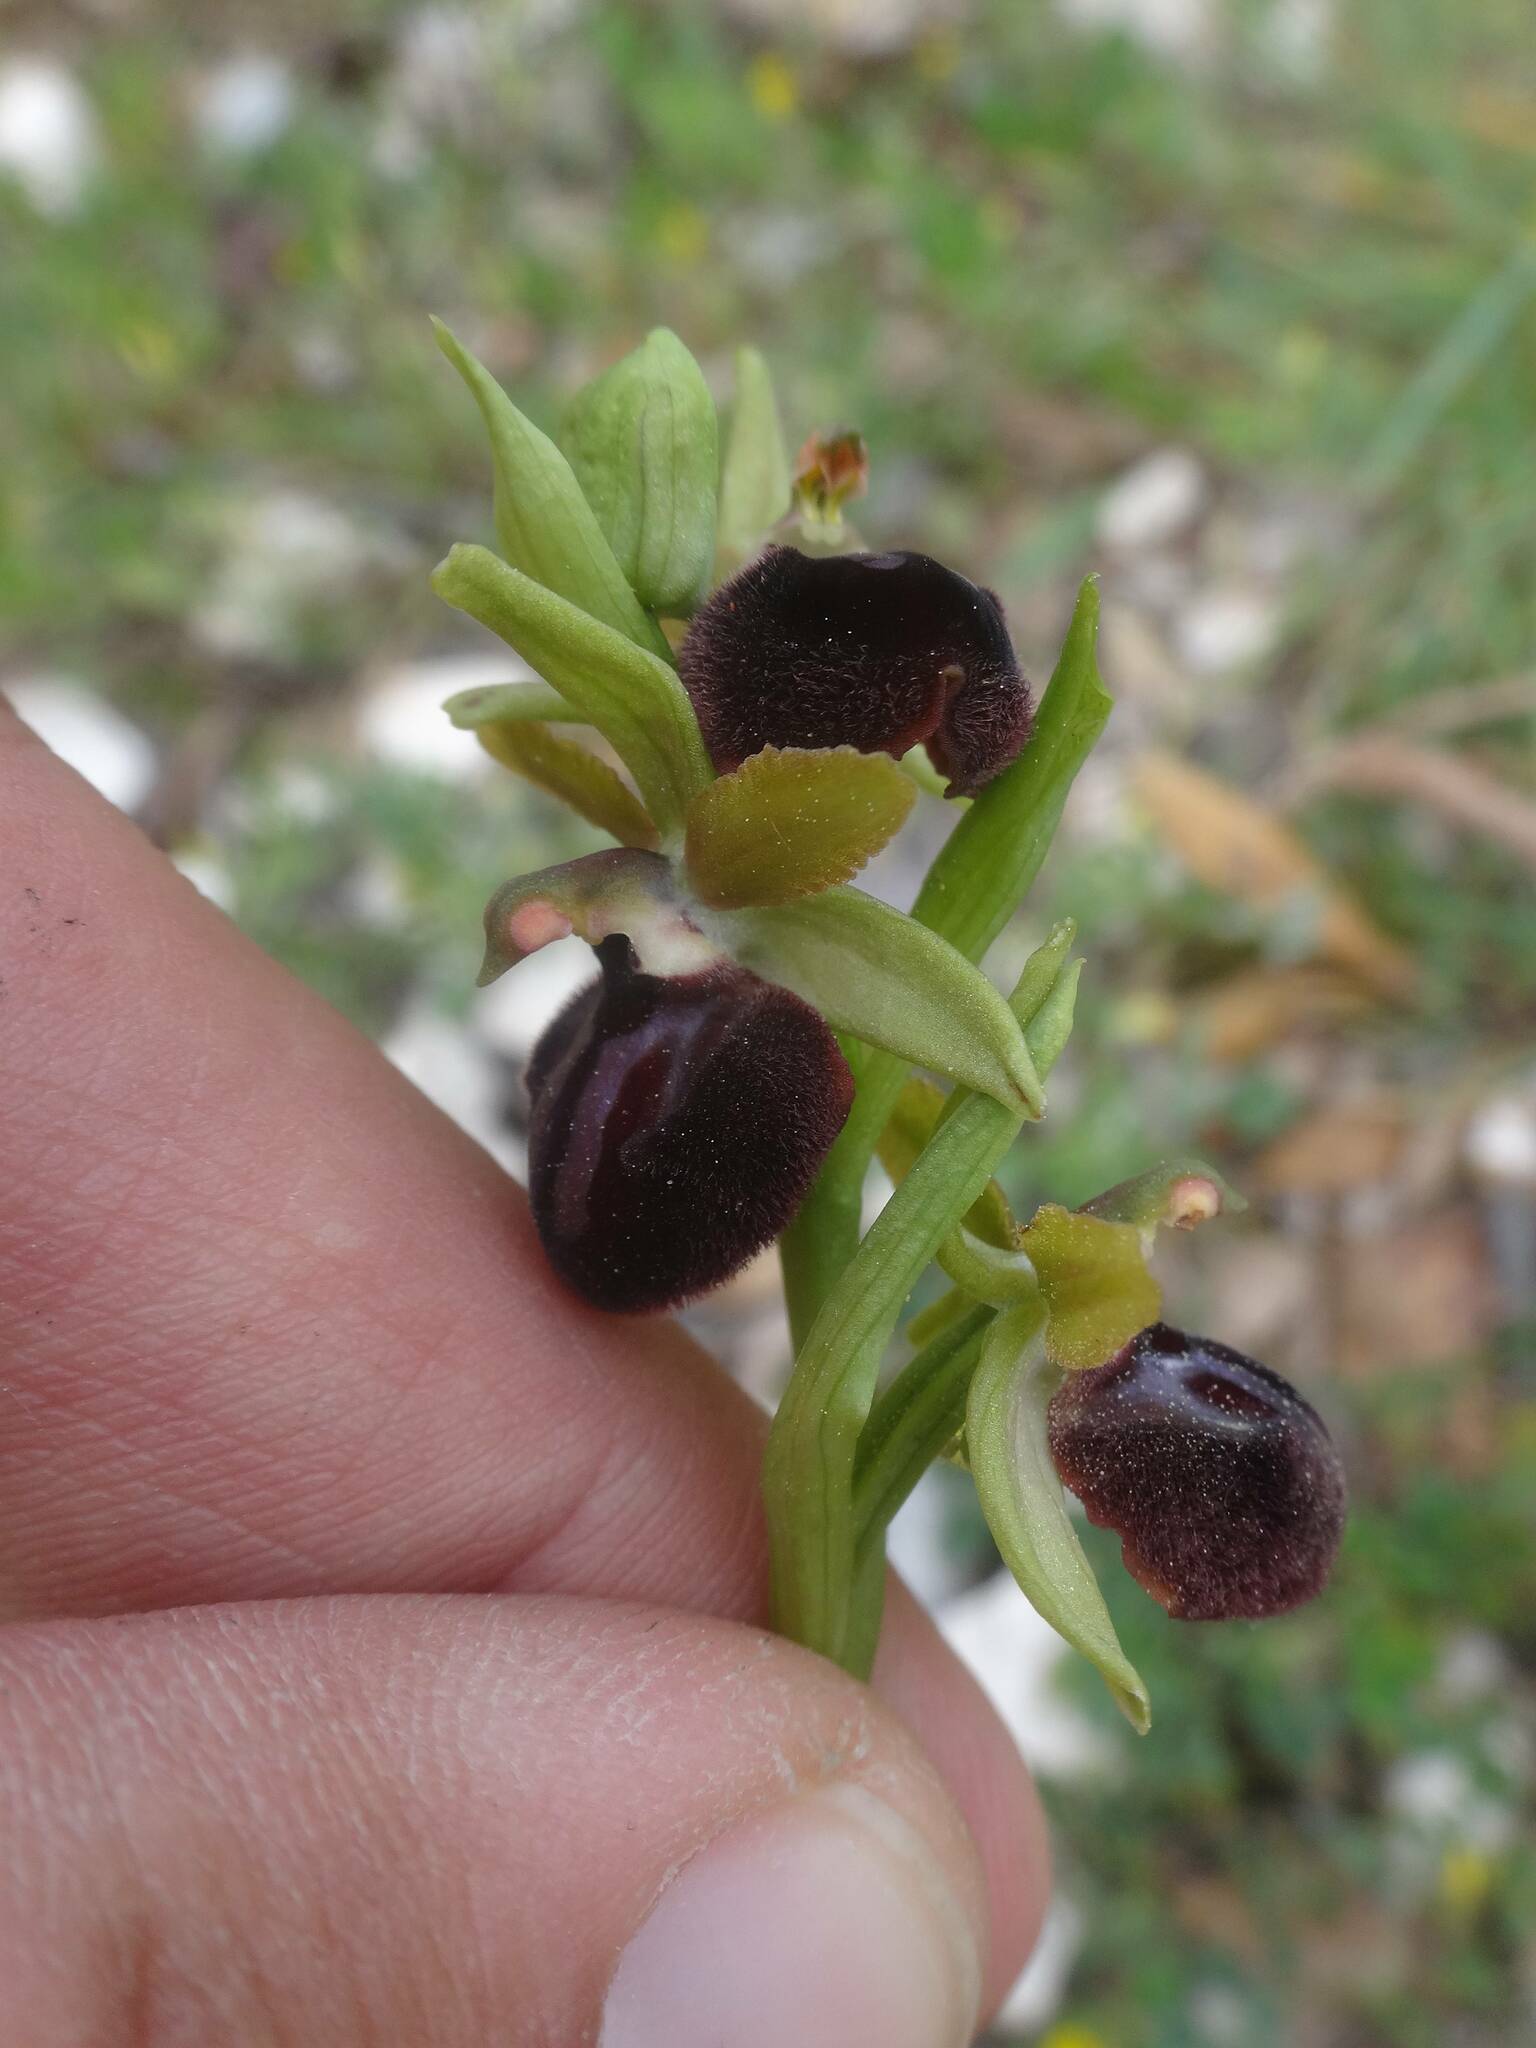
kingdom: Plantae
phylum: Tracheophyta
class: Liliopsida
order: Asparagales
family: Orchidaceae
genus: Ophrys
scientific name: Ophrys sphegodes
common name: Early spider-orchid
